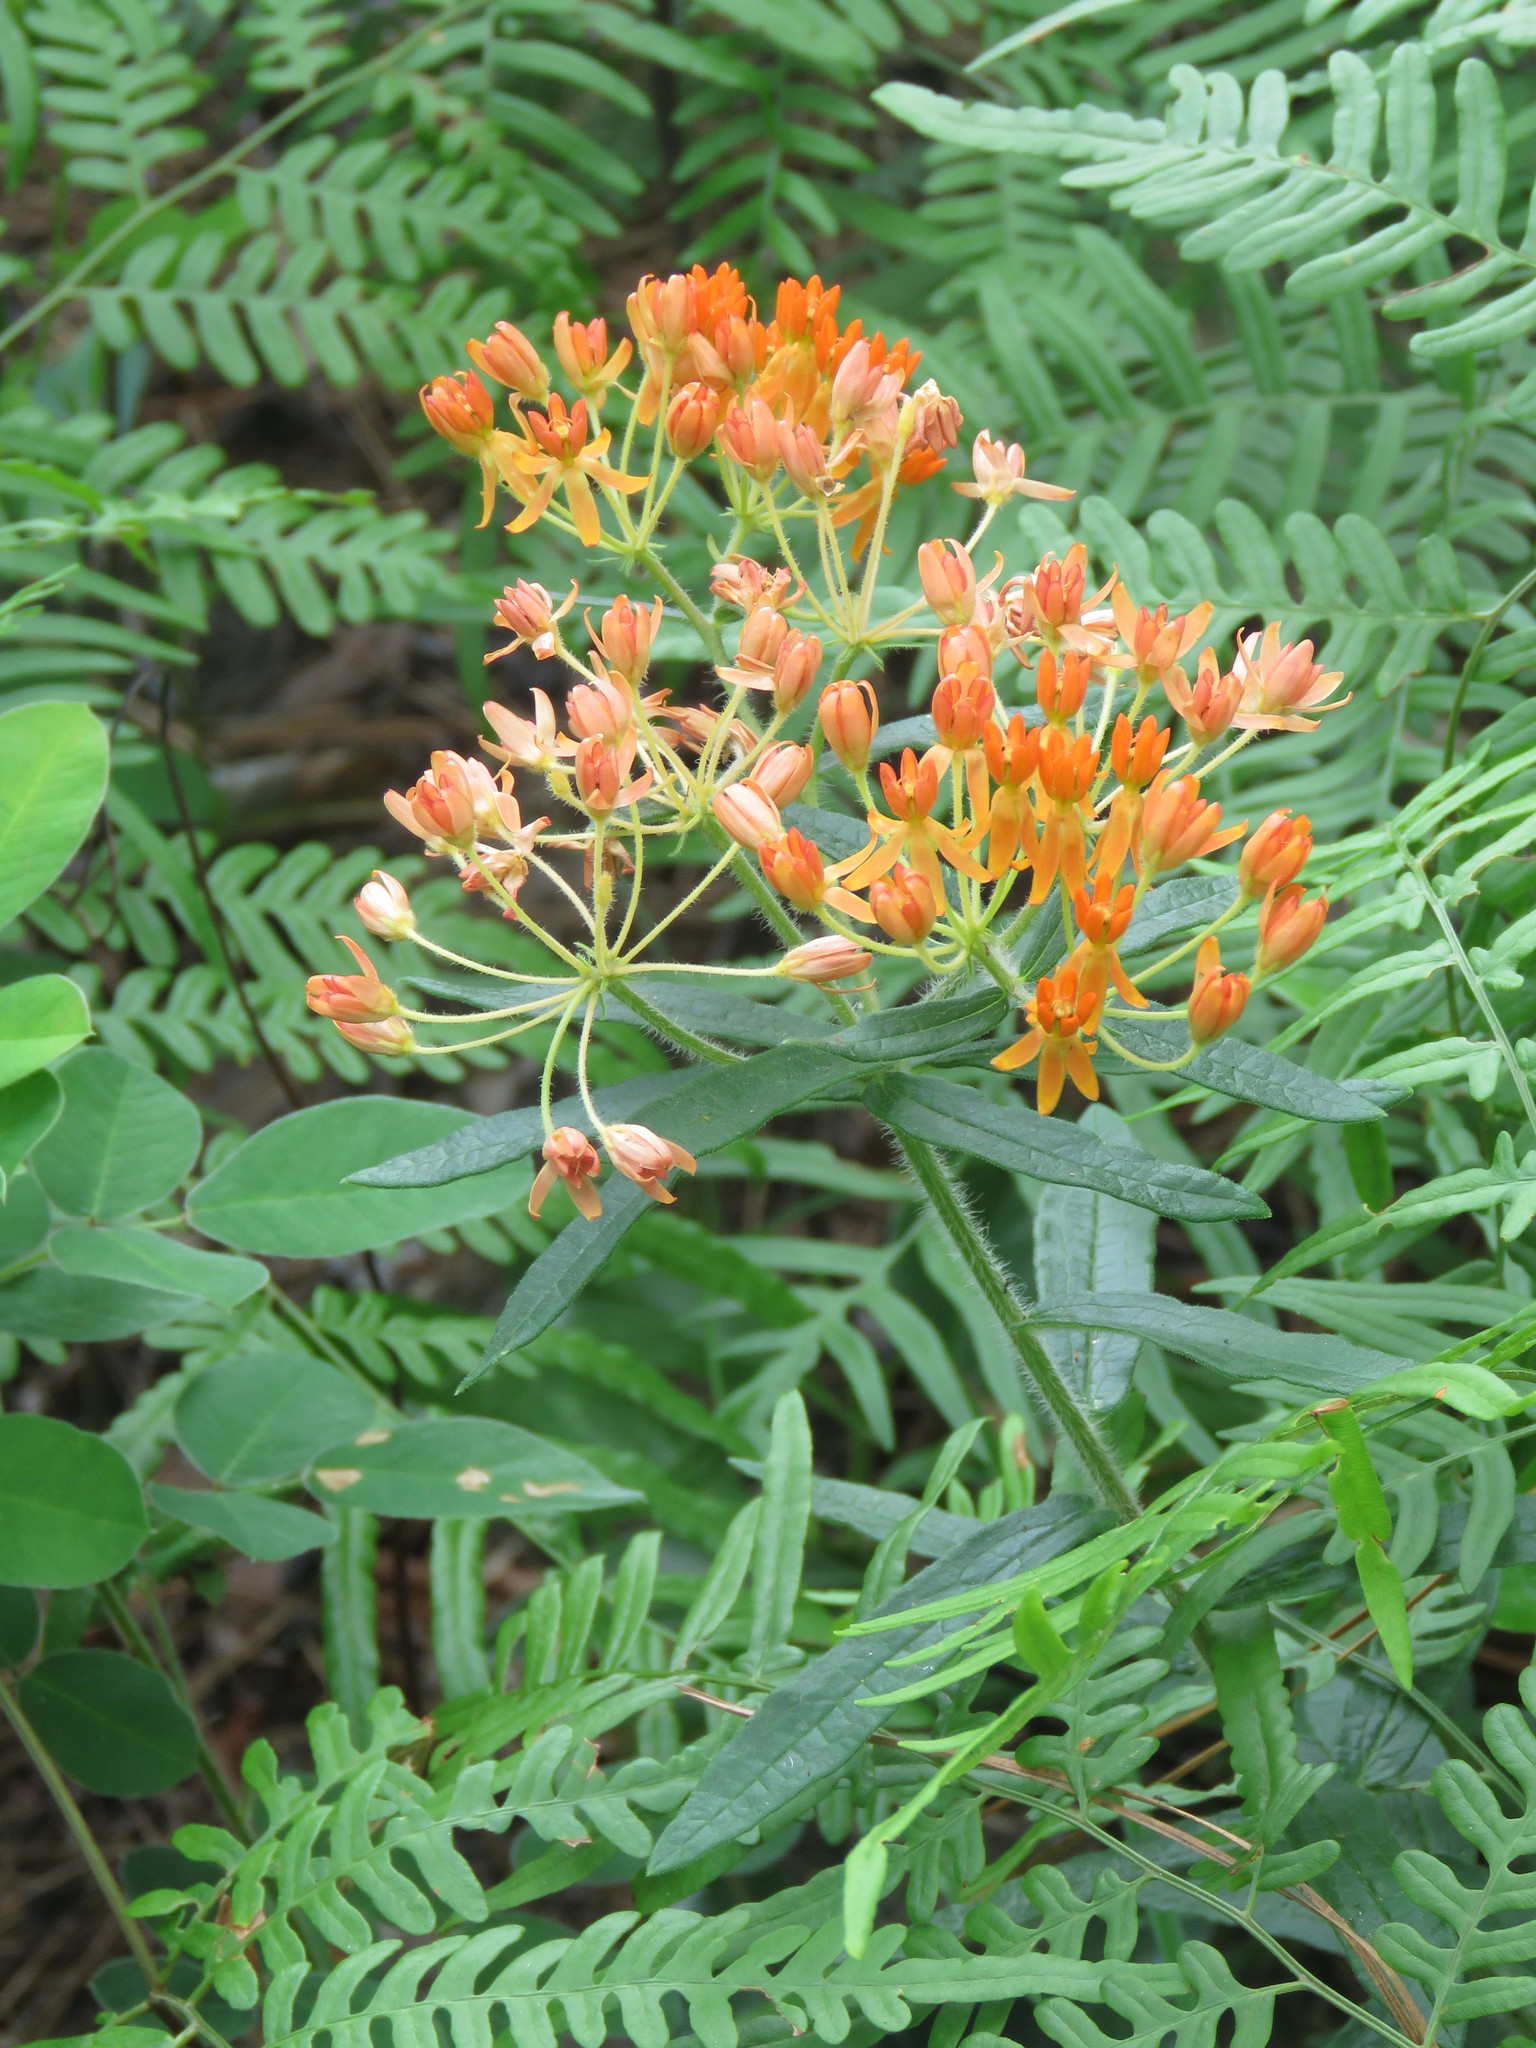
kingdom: Plantae
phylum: Tracheophyta
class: Magnoliopsida
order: Gentianales
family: Apocynaceae
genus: Asclepias
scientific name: Asclepias tuberosa
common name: Butterfly milkweed
